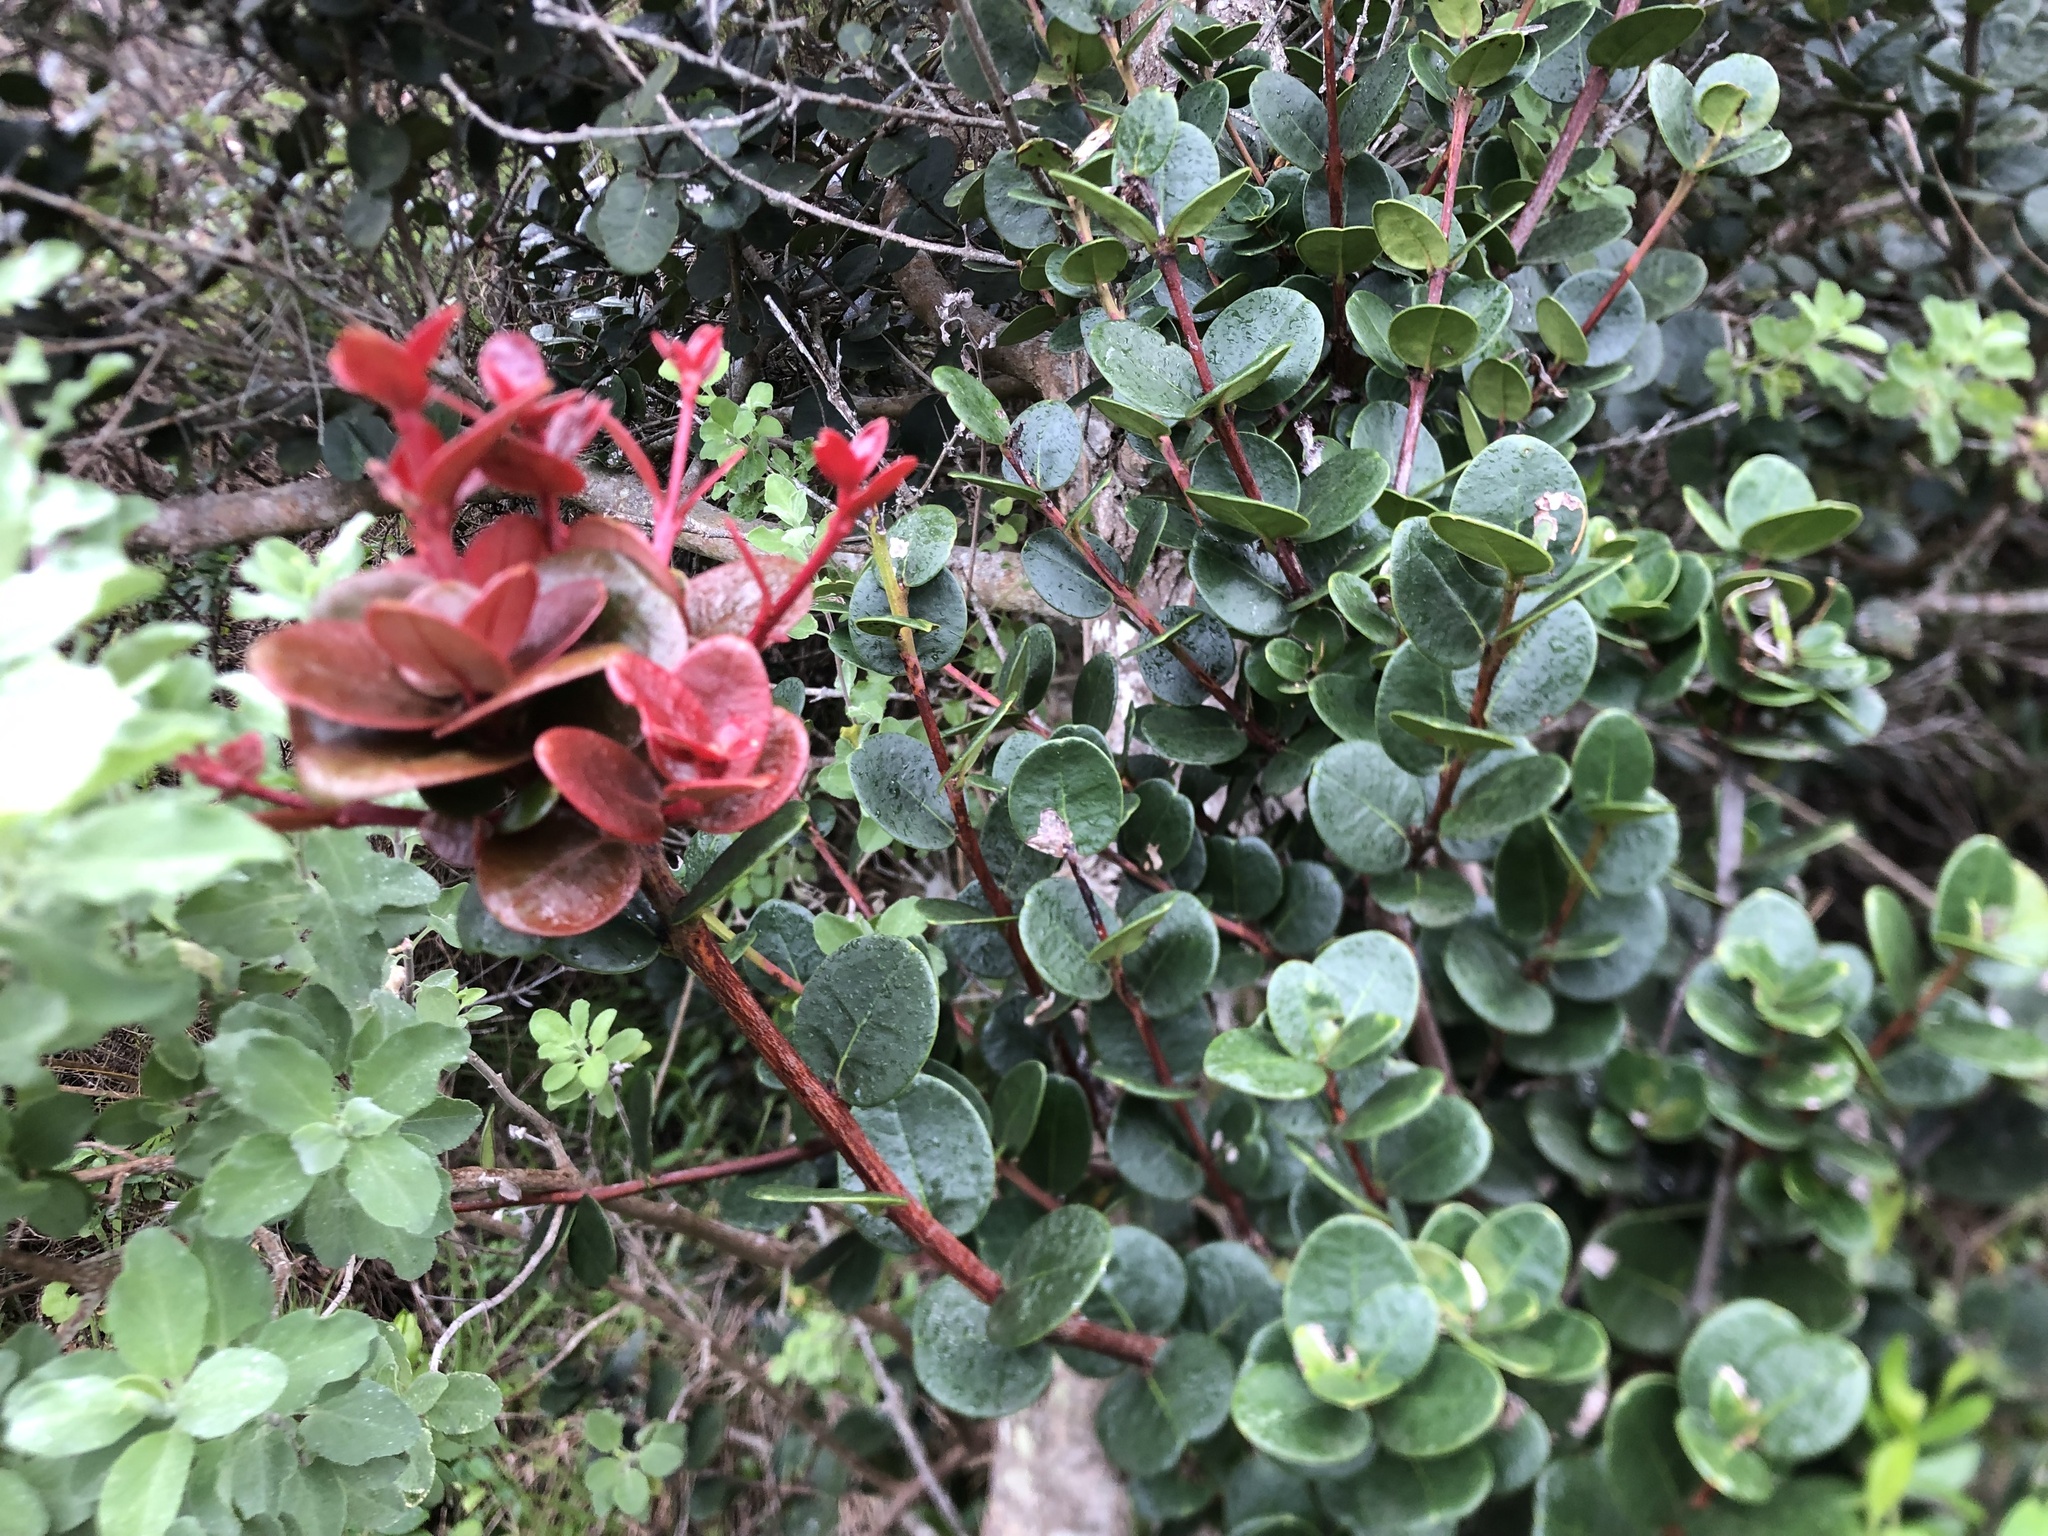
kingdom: Plantae
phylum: Tracheophyta
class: Magnoliopsida
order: Celastrales
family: Celastraceae
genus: Maurocenia
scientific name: Maurocenia frangula
